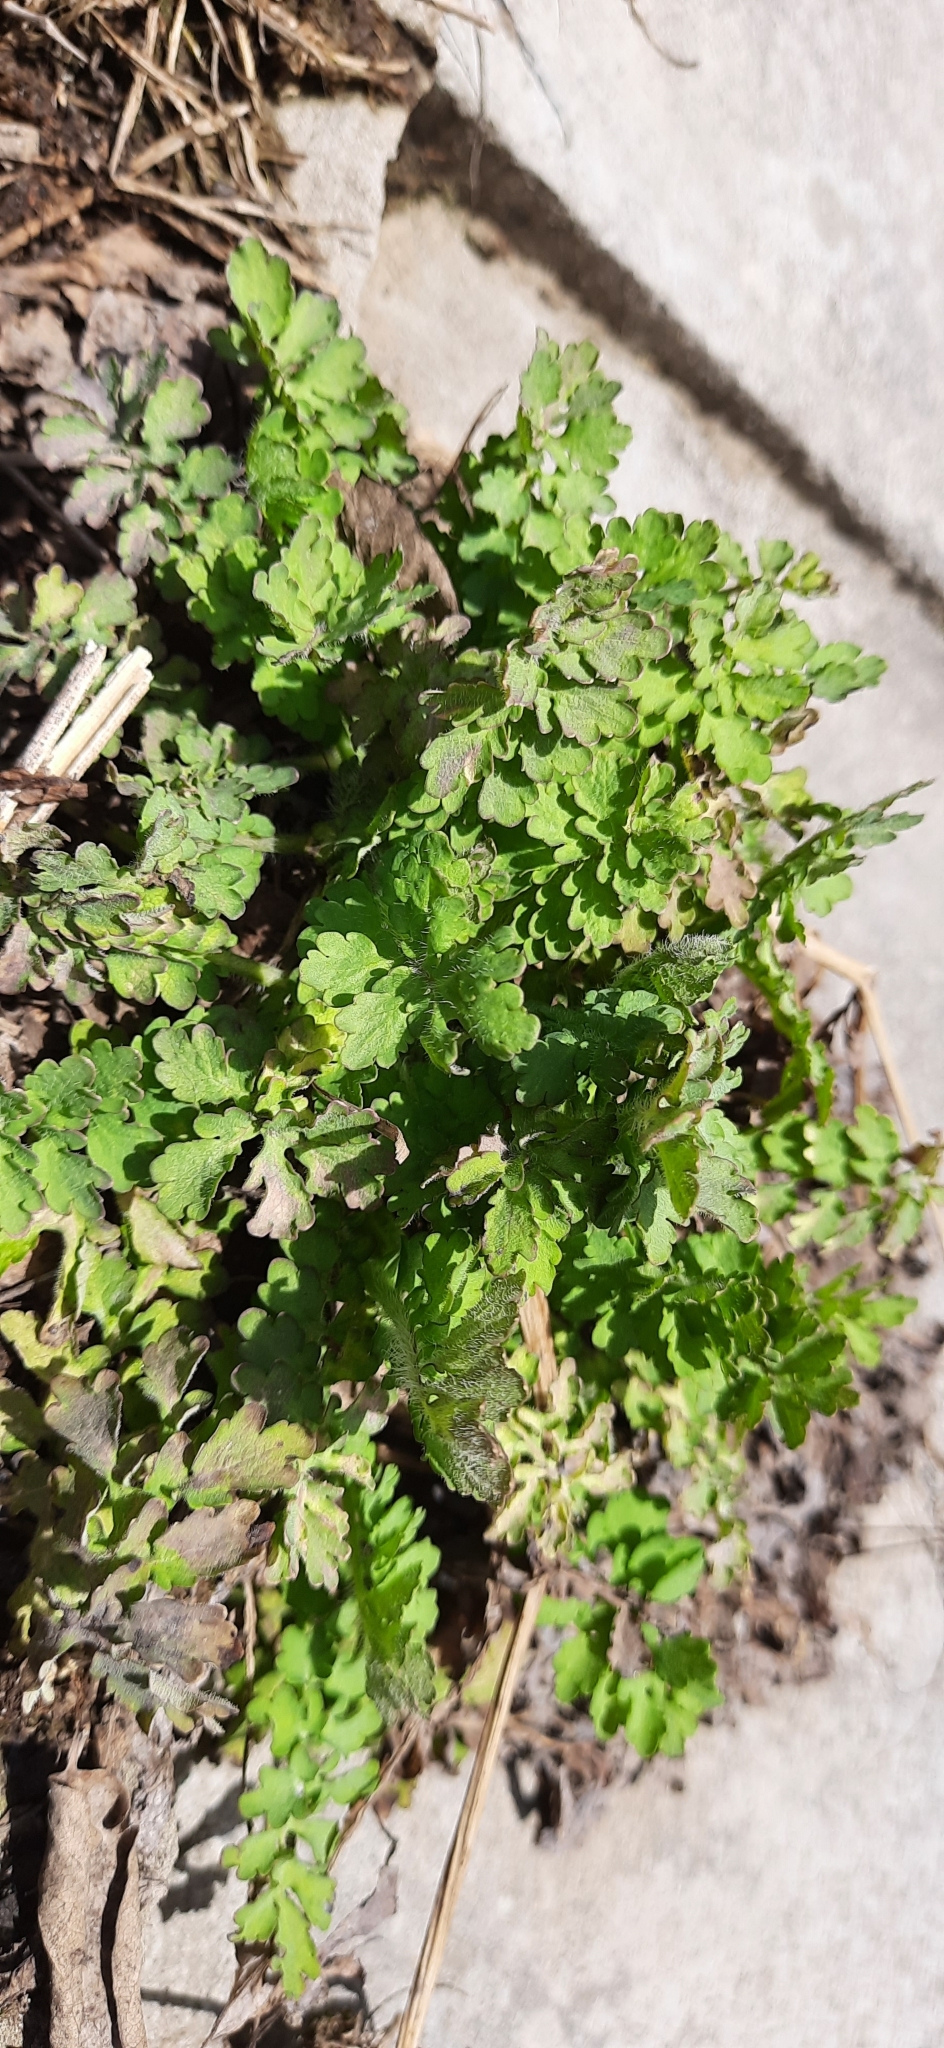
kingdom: Plantae
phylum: Tracheophyta
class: Magnoliopsida
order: Ranunculales
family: Papaveraceae
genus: Chelidonium
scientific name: Chelidonium majus
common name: Greater celandine
